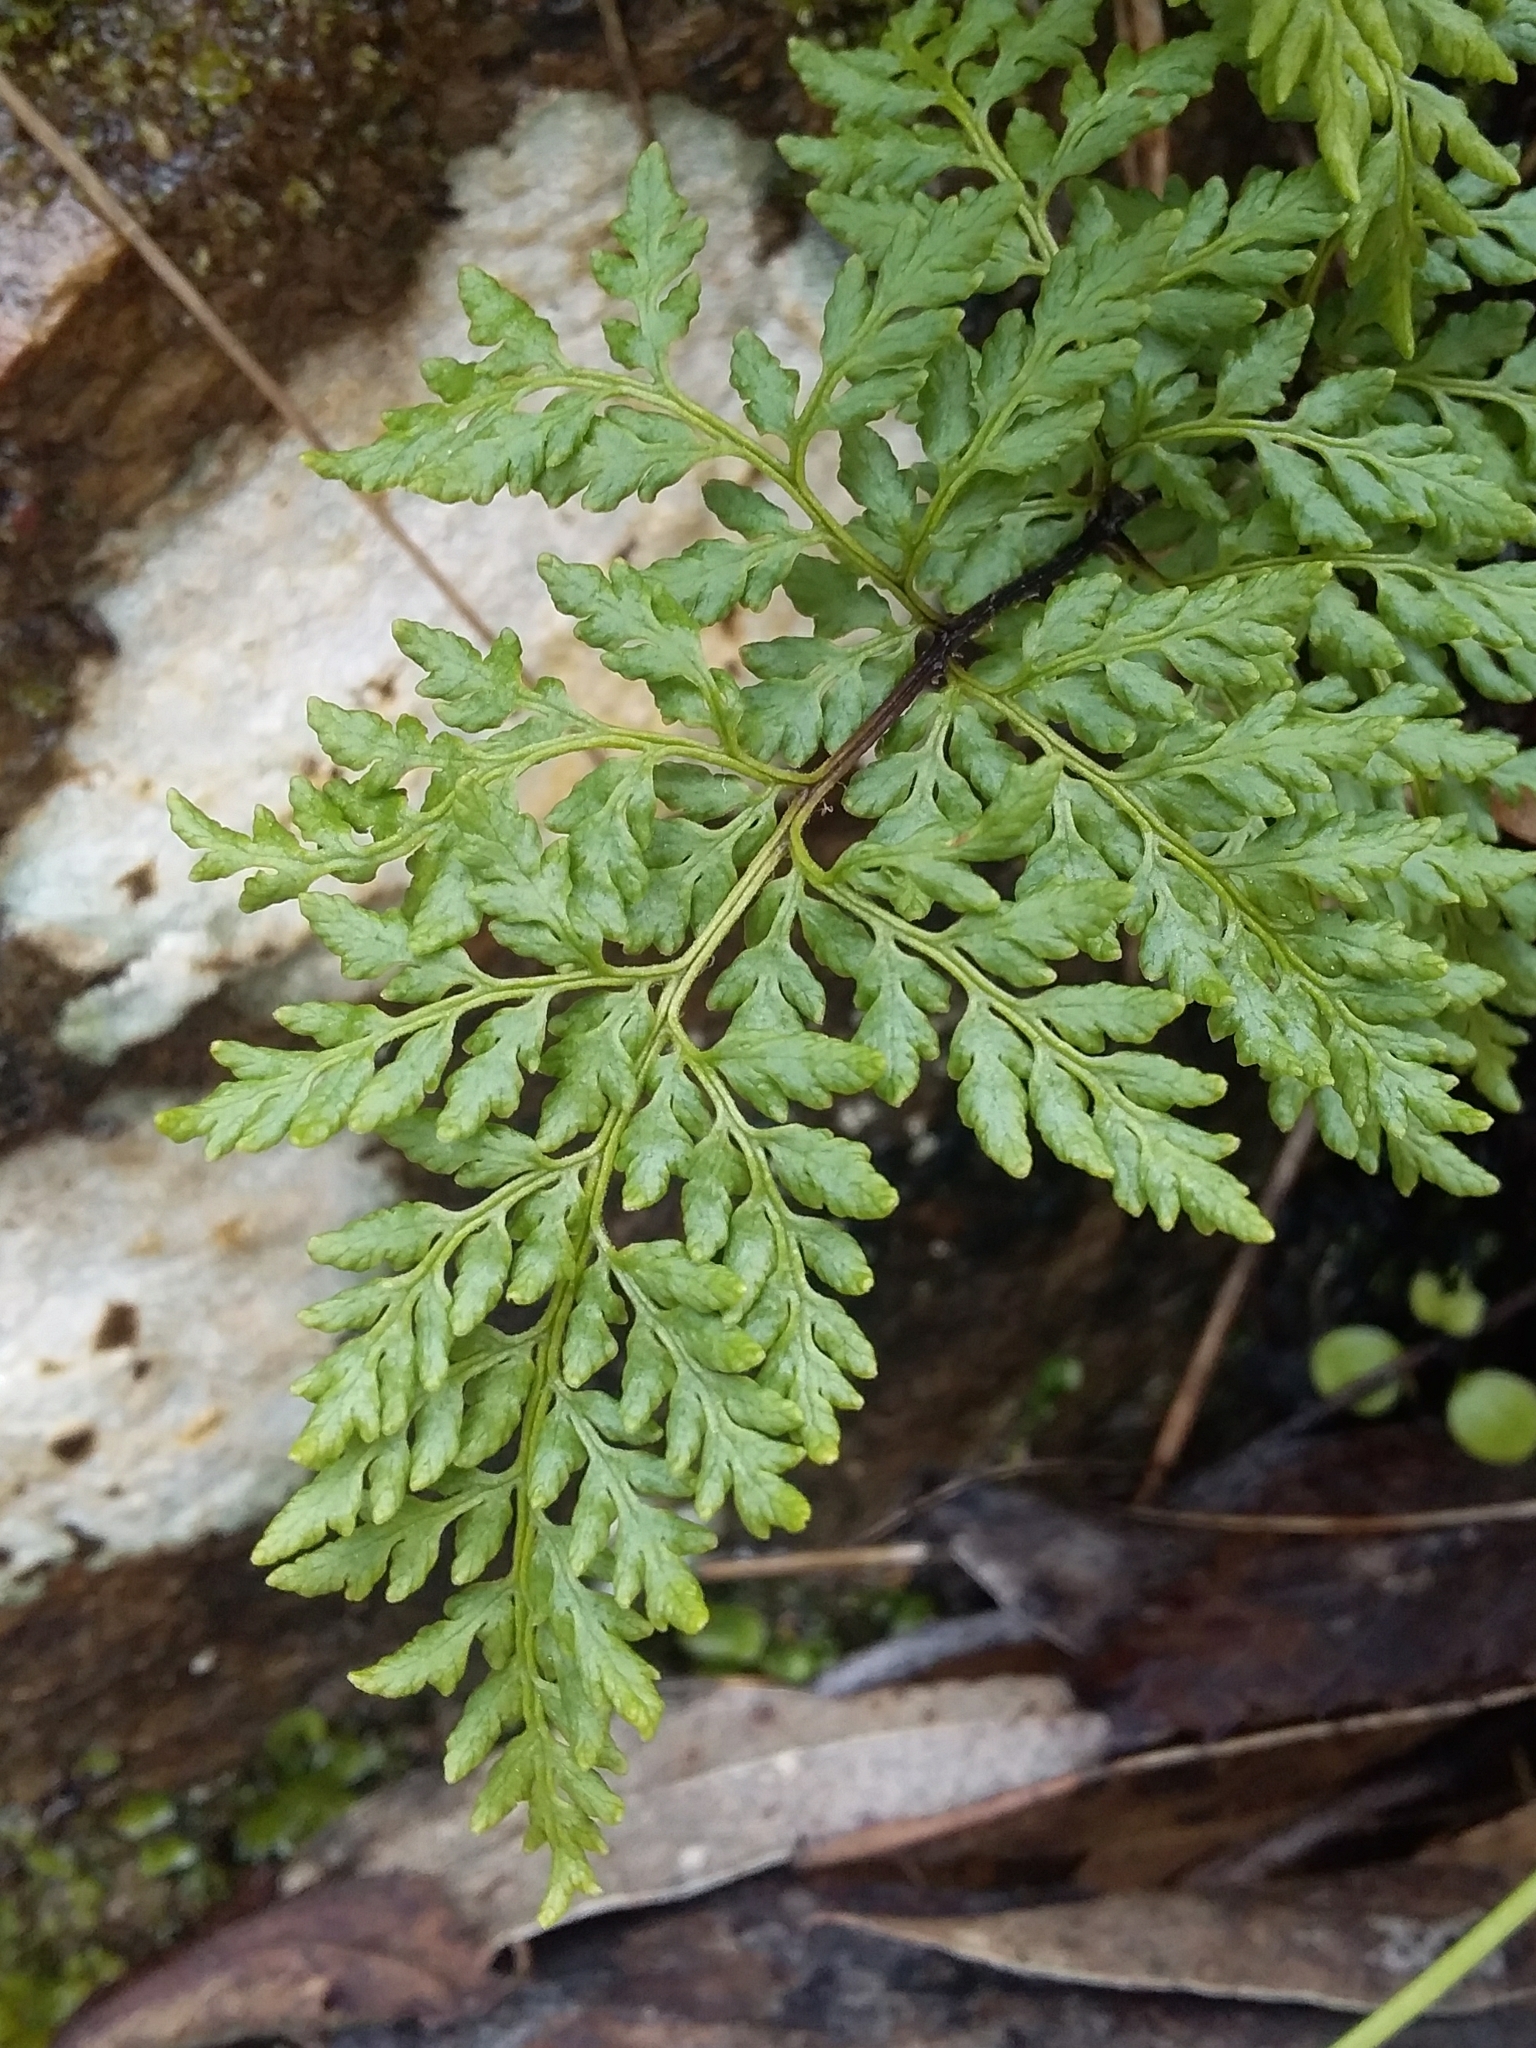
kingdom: Plantae
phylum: Tracheophyta
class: Polypodiopsida
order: Polypodiales
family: Pteridaceae
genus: Cheilanthes
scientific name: Cheilanthes austrotenuifolia
